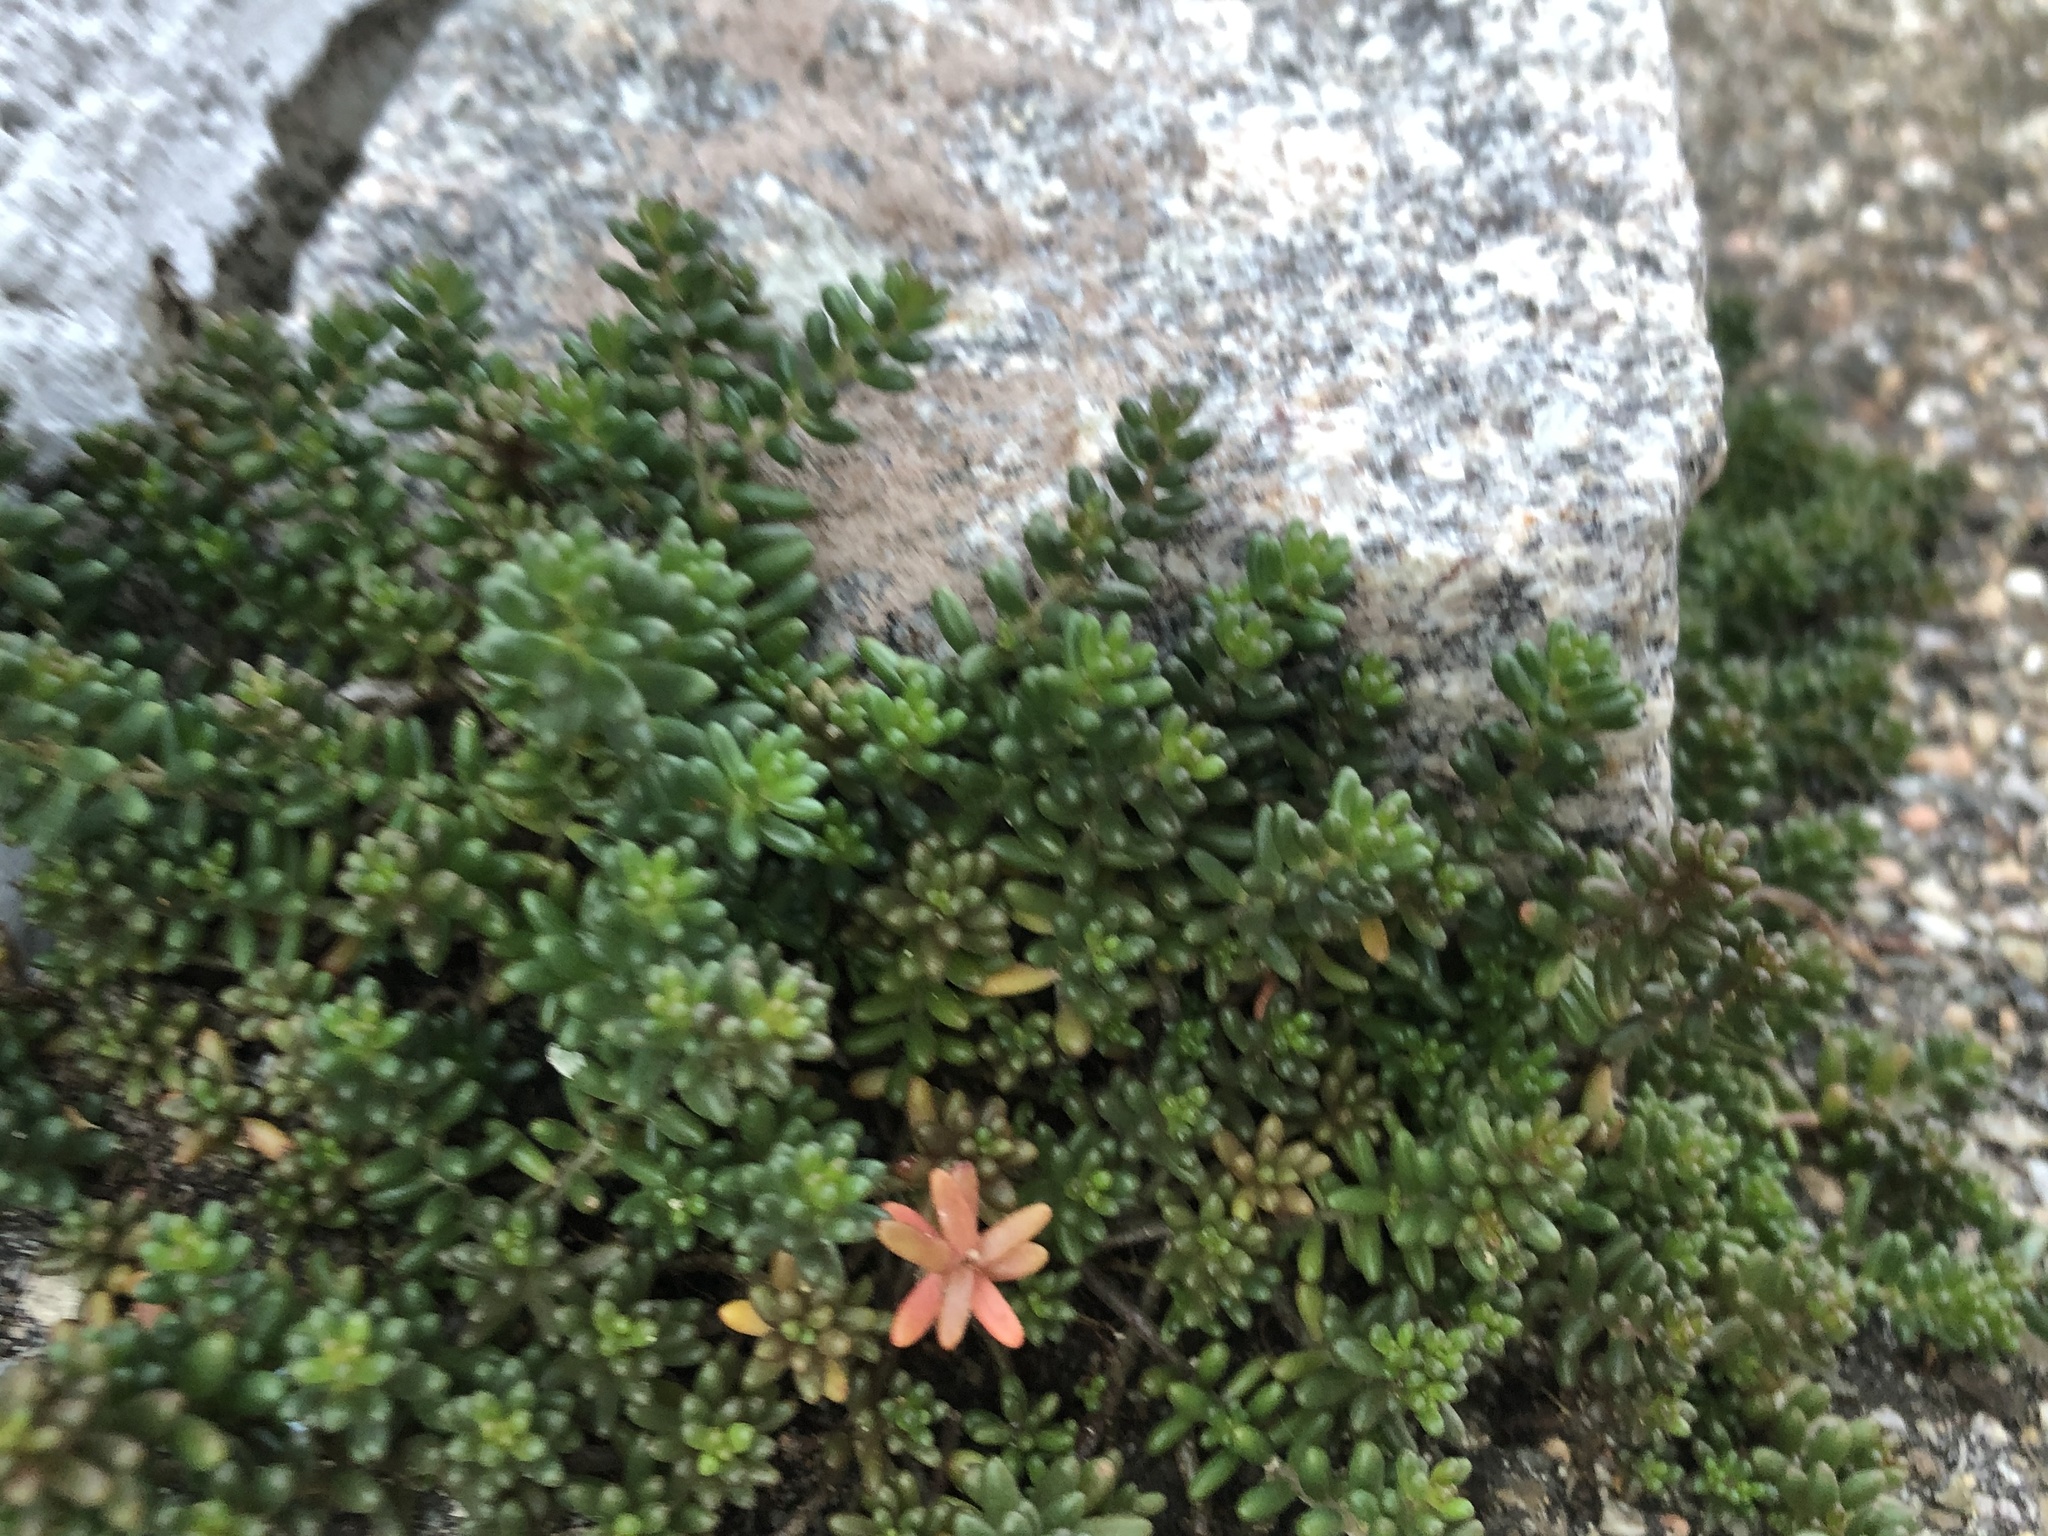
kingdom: Plantae
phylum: Tracheophyta
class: Magnoliopsida
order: Saxifragales
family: Crassulaceae
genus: Sedum
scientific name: Sedum album
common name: White stonecrop
